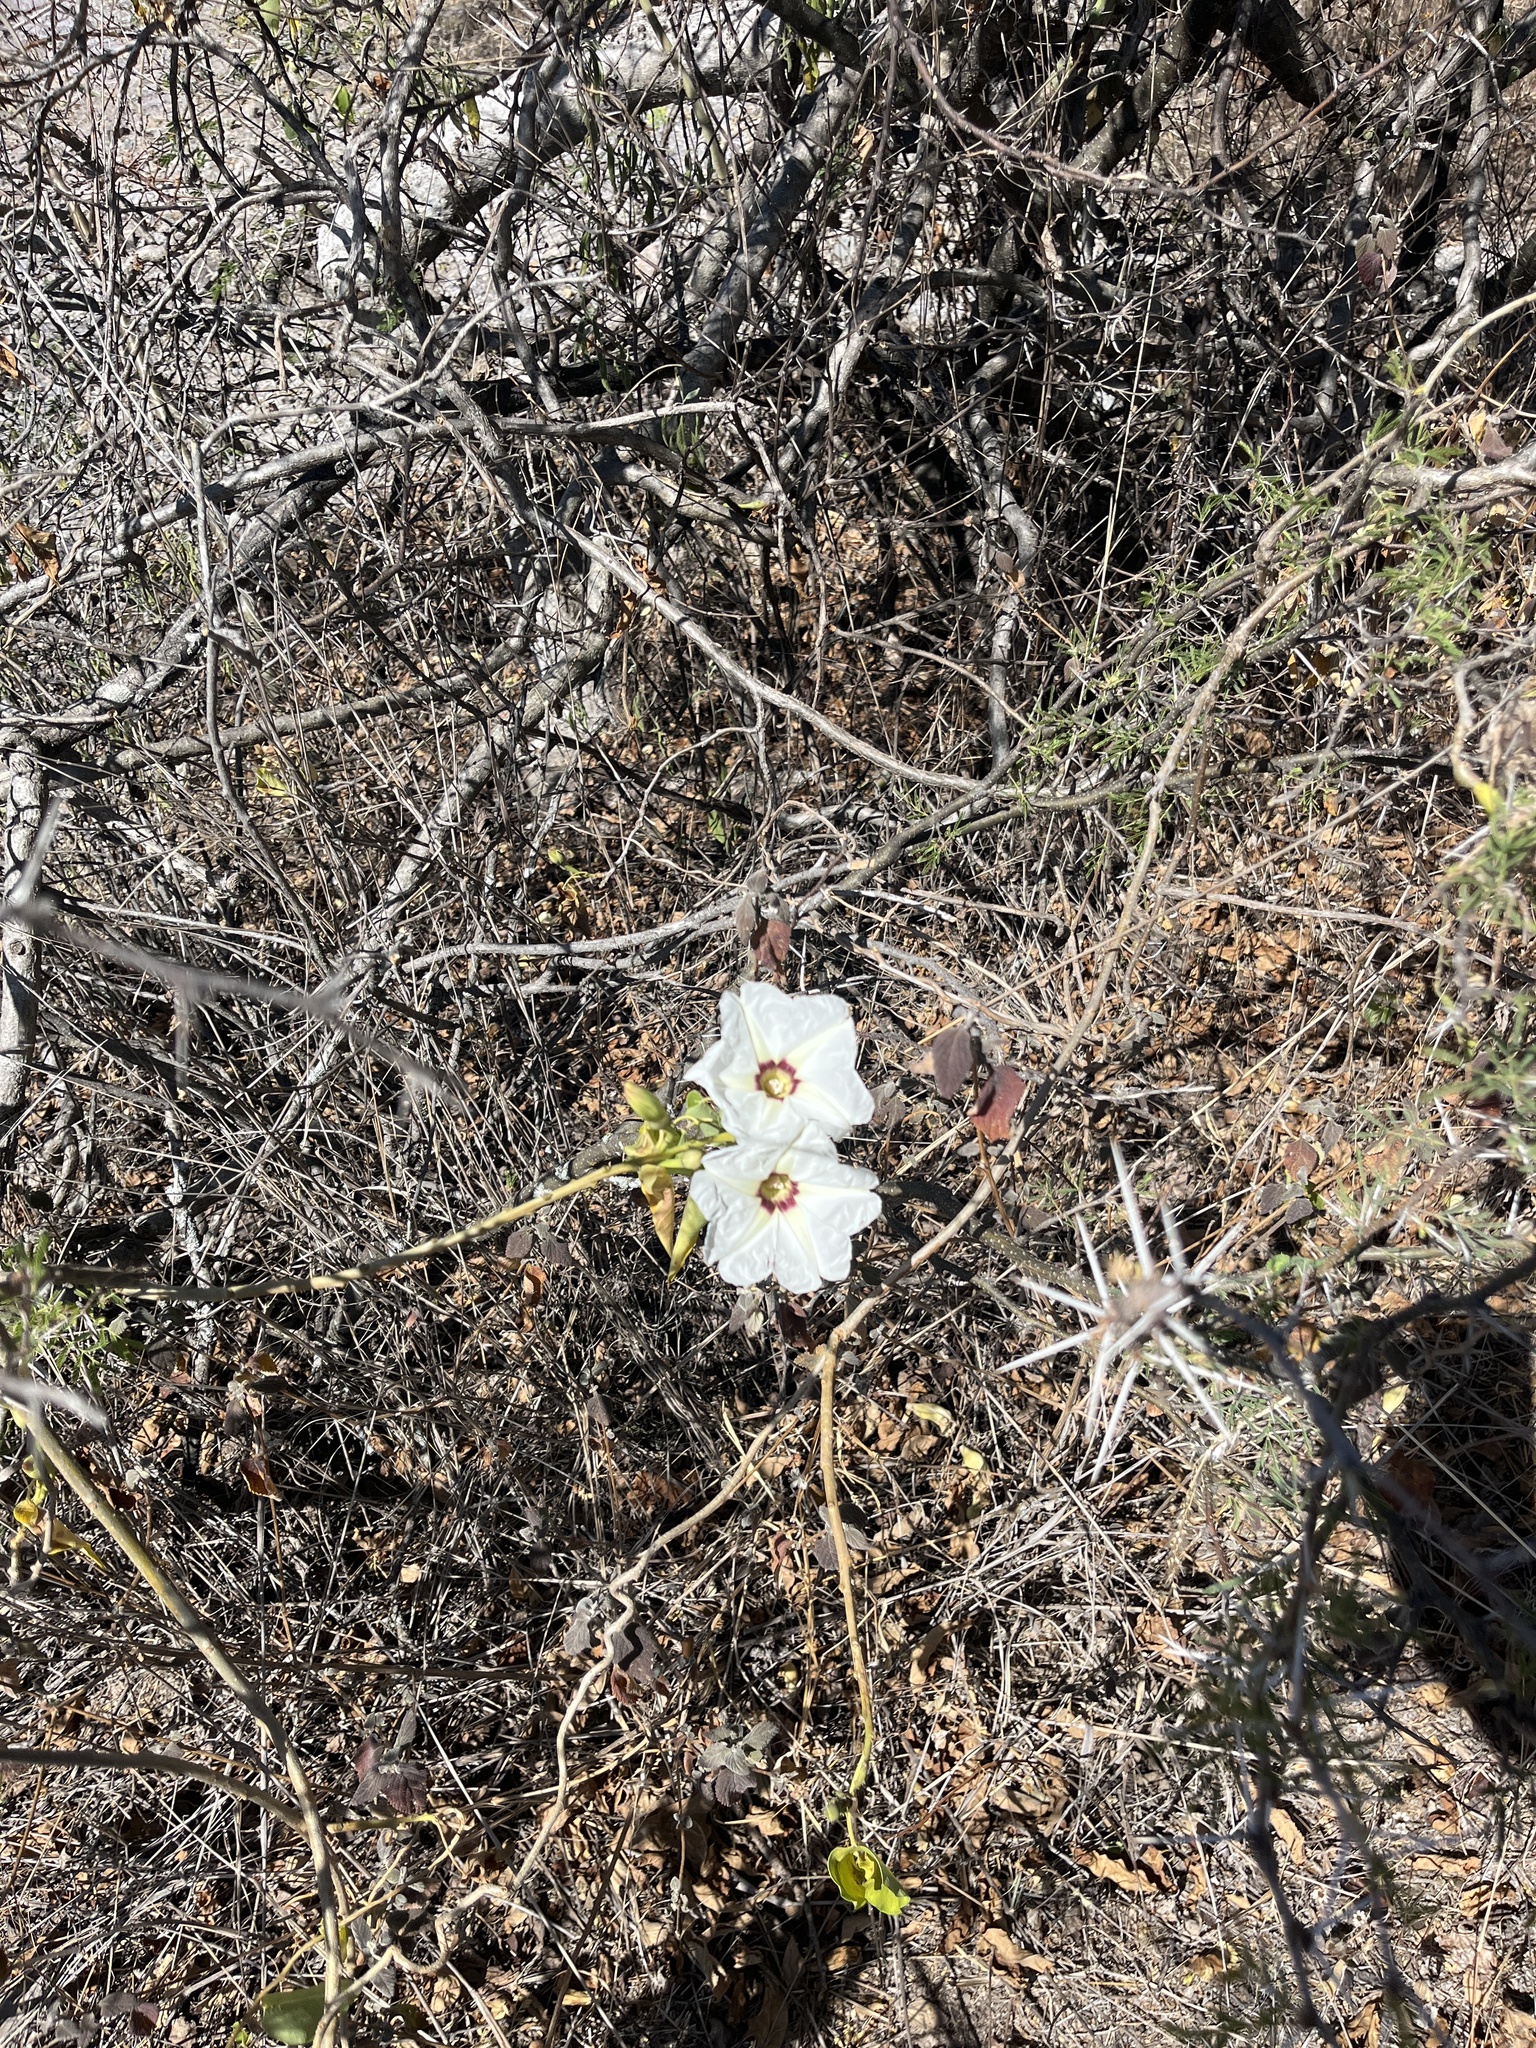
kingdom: Plantae
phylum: Tracheophyta
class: Magnoliopsida
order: Solanales
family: Convolvulaceae
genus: Ipomoea
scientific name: Ipomoea pauciflora
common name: Tree morningglory
